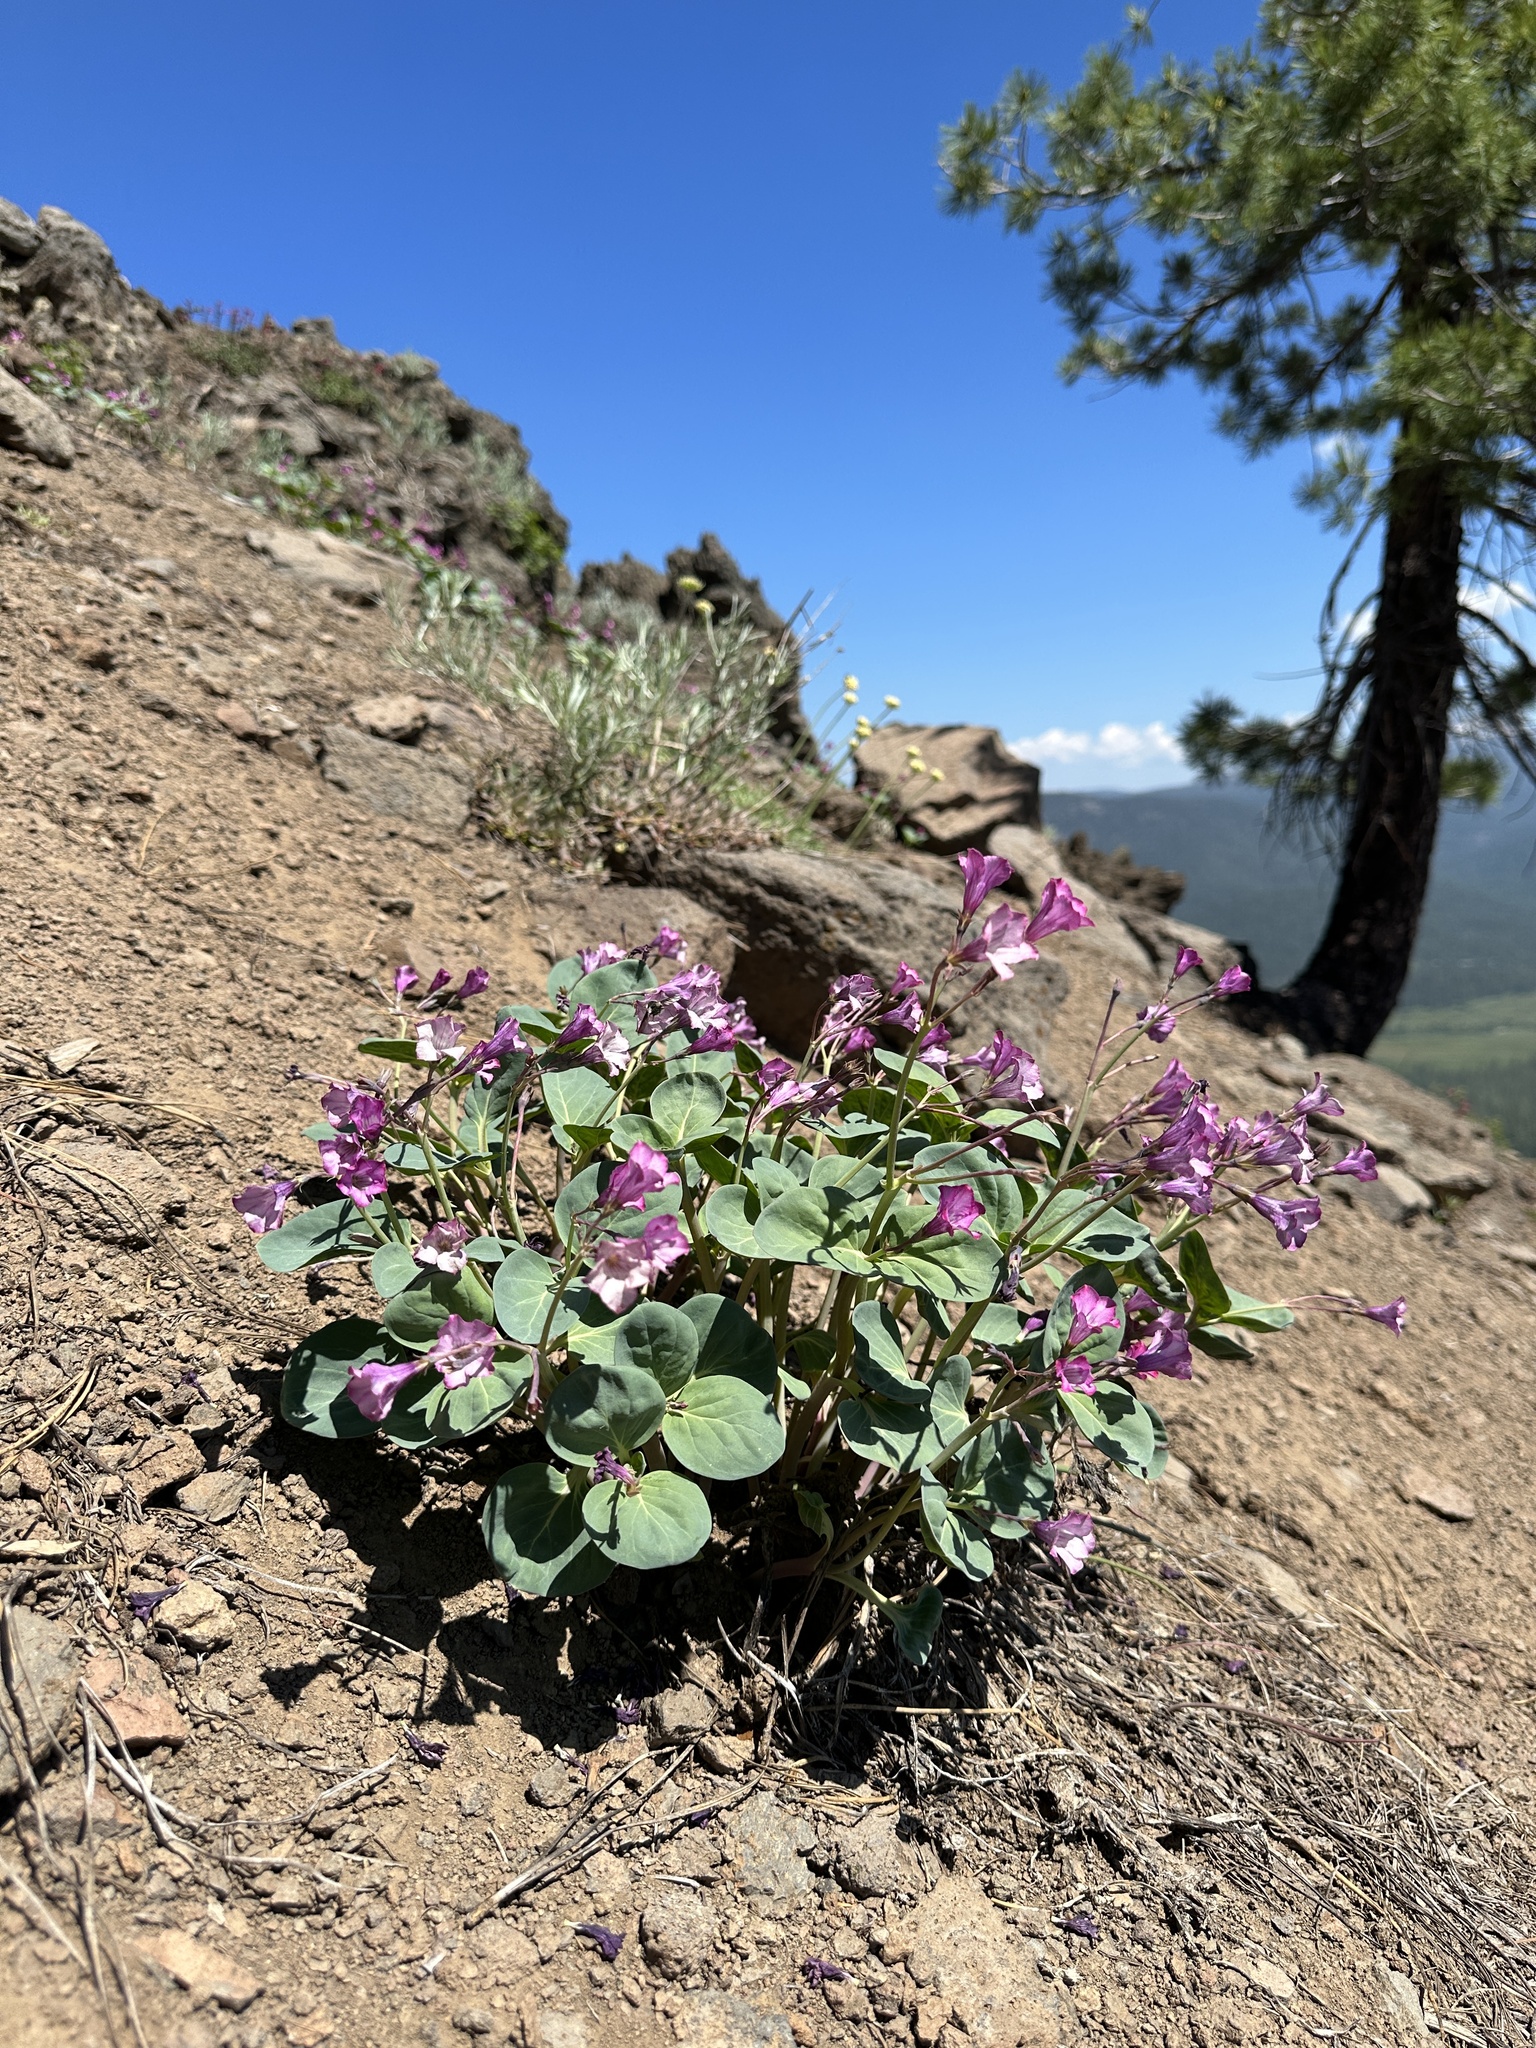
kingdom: Plantae
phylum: Tracheophyta
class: Magnoliopsida
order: Gentianales
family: Apocynaceae
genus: Cycladenia
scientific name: Cycladenia humilis
